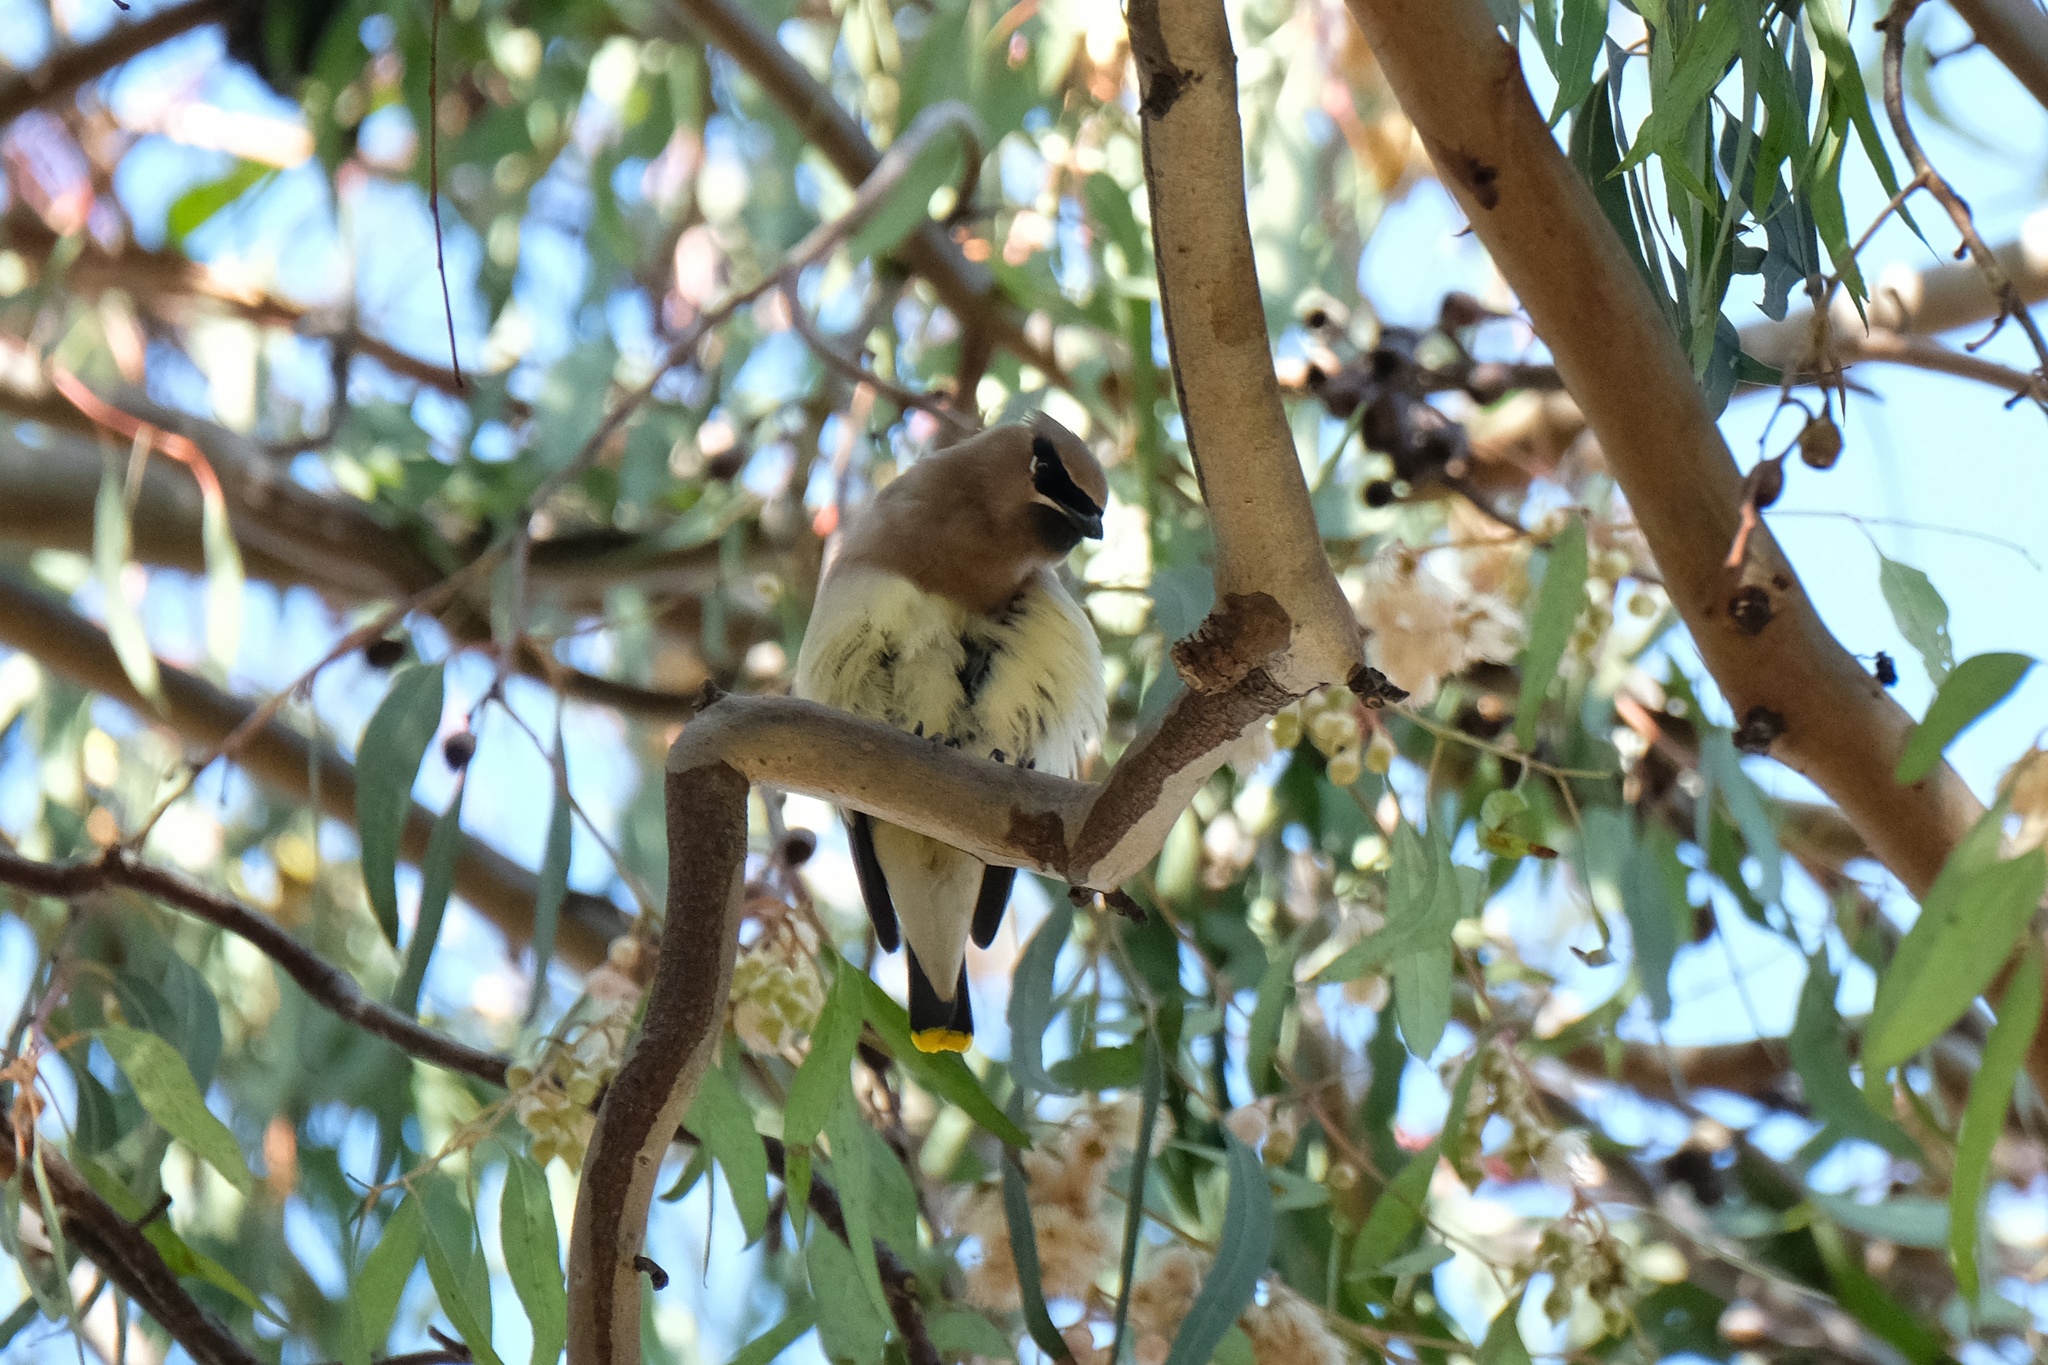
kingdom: Animalia
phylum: Chordata
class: Aves
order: Passeriformes
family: Bombycillidae
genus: Bombycilla
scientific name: Bombycilla cedrorum
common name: Cedar waxwing
